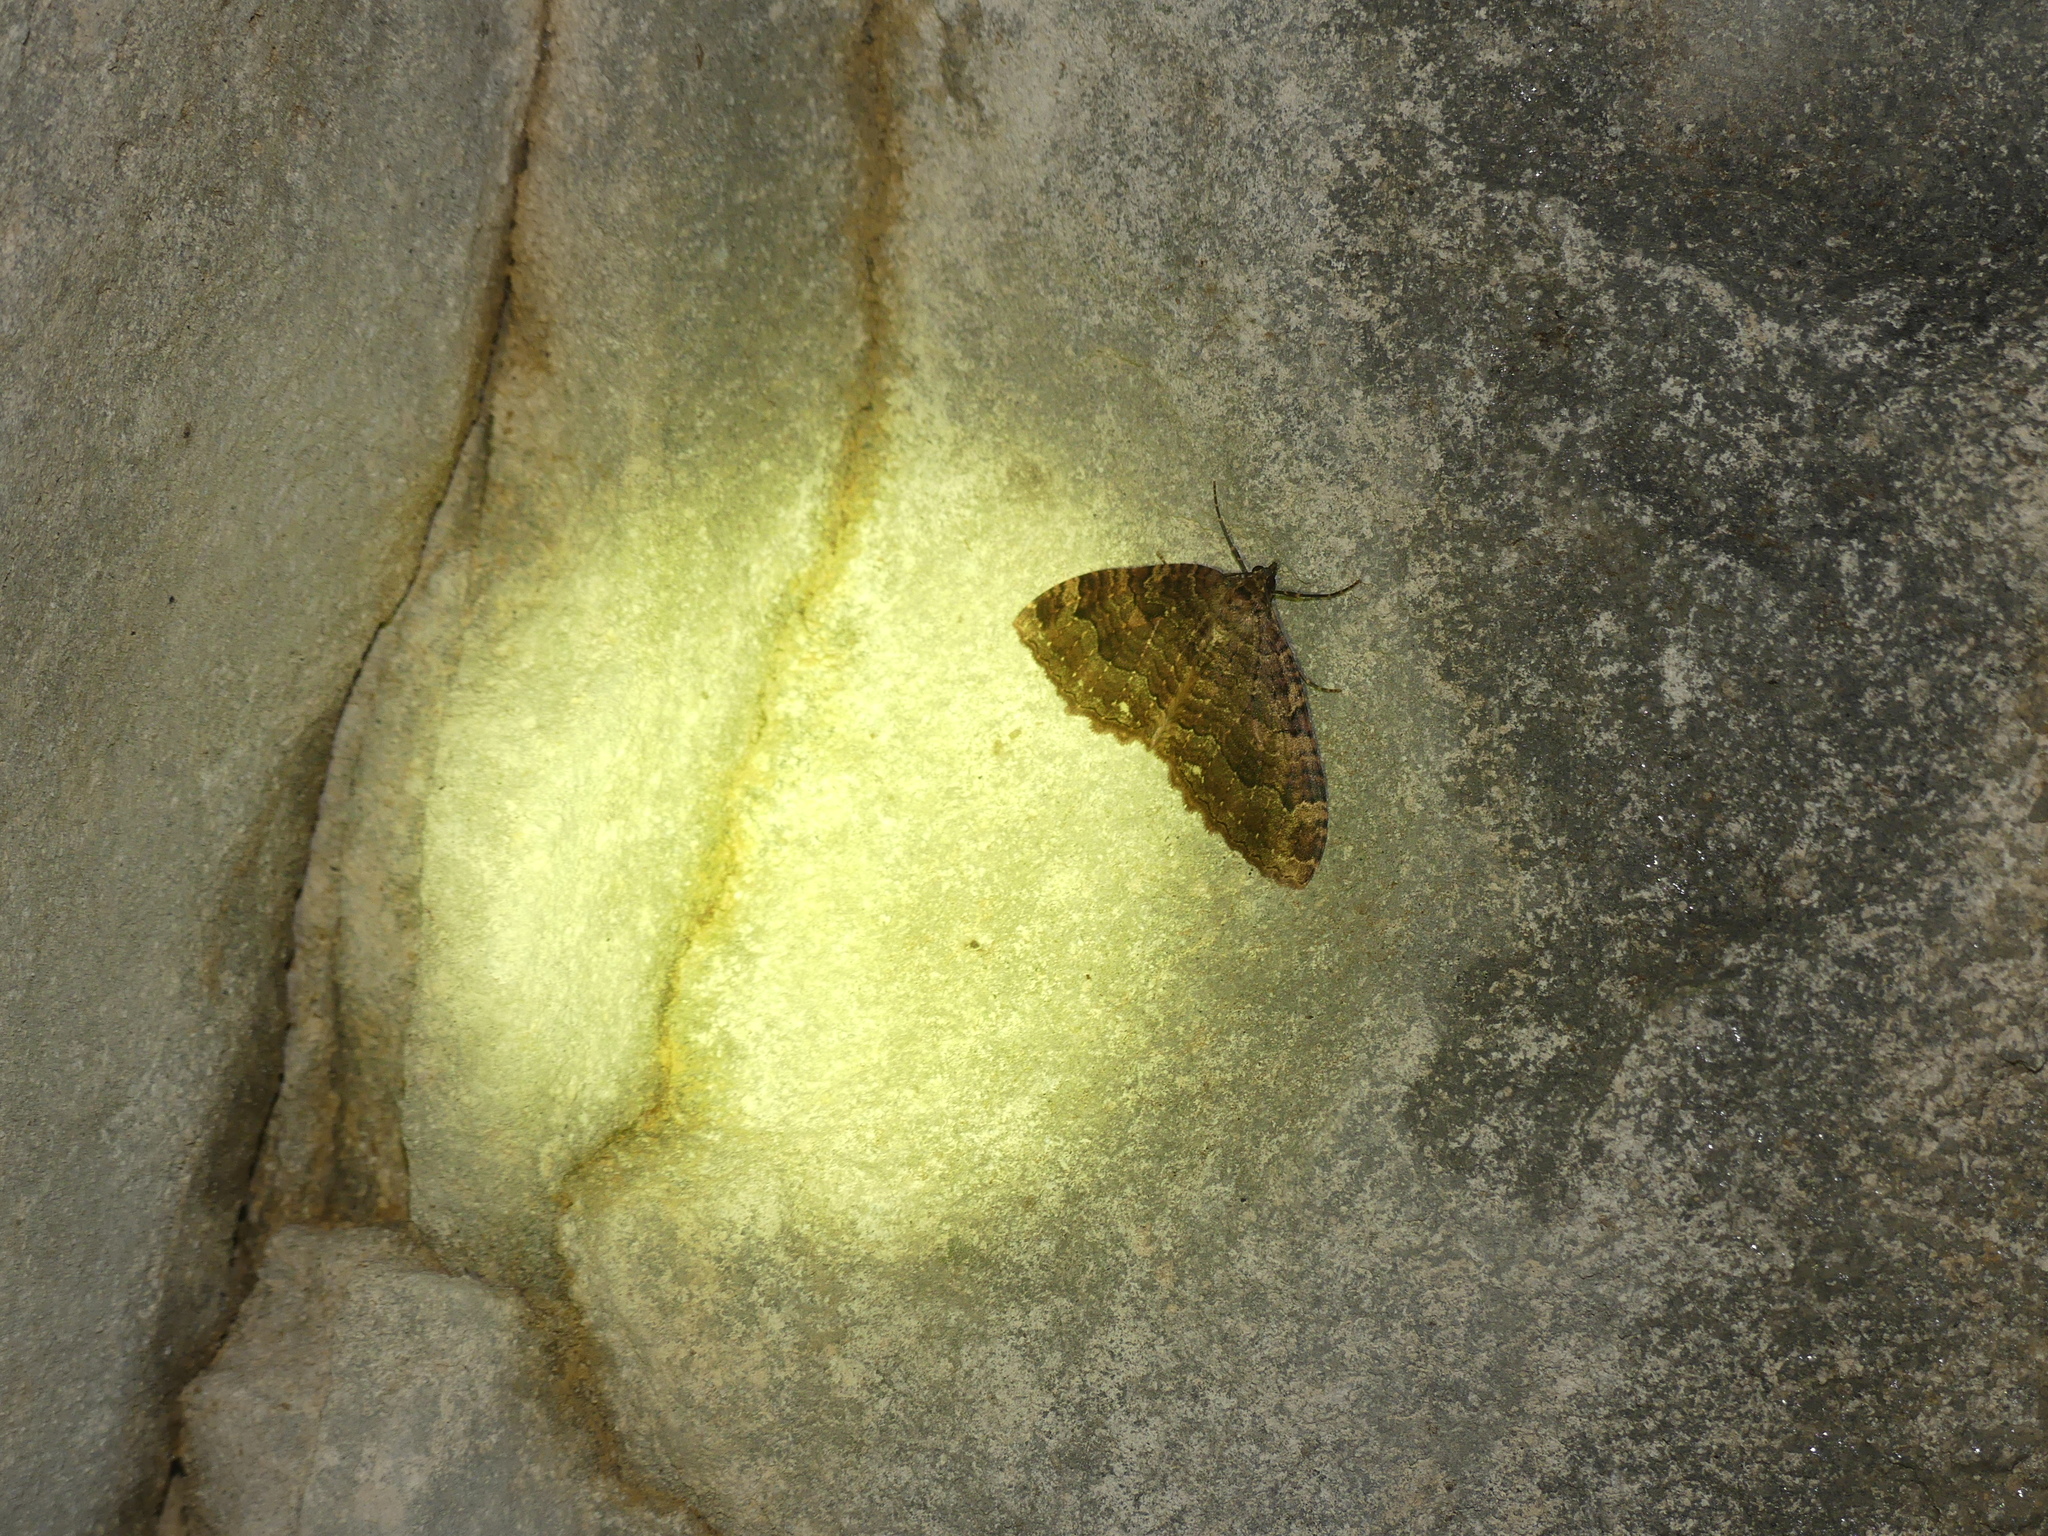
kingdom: Animalia
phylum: Arthropoda
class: Insecta
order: Lepidoptera
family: Geometridae
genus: Triphosa
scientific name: Triphosa dubitata
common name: Tissue
